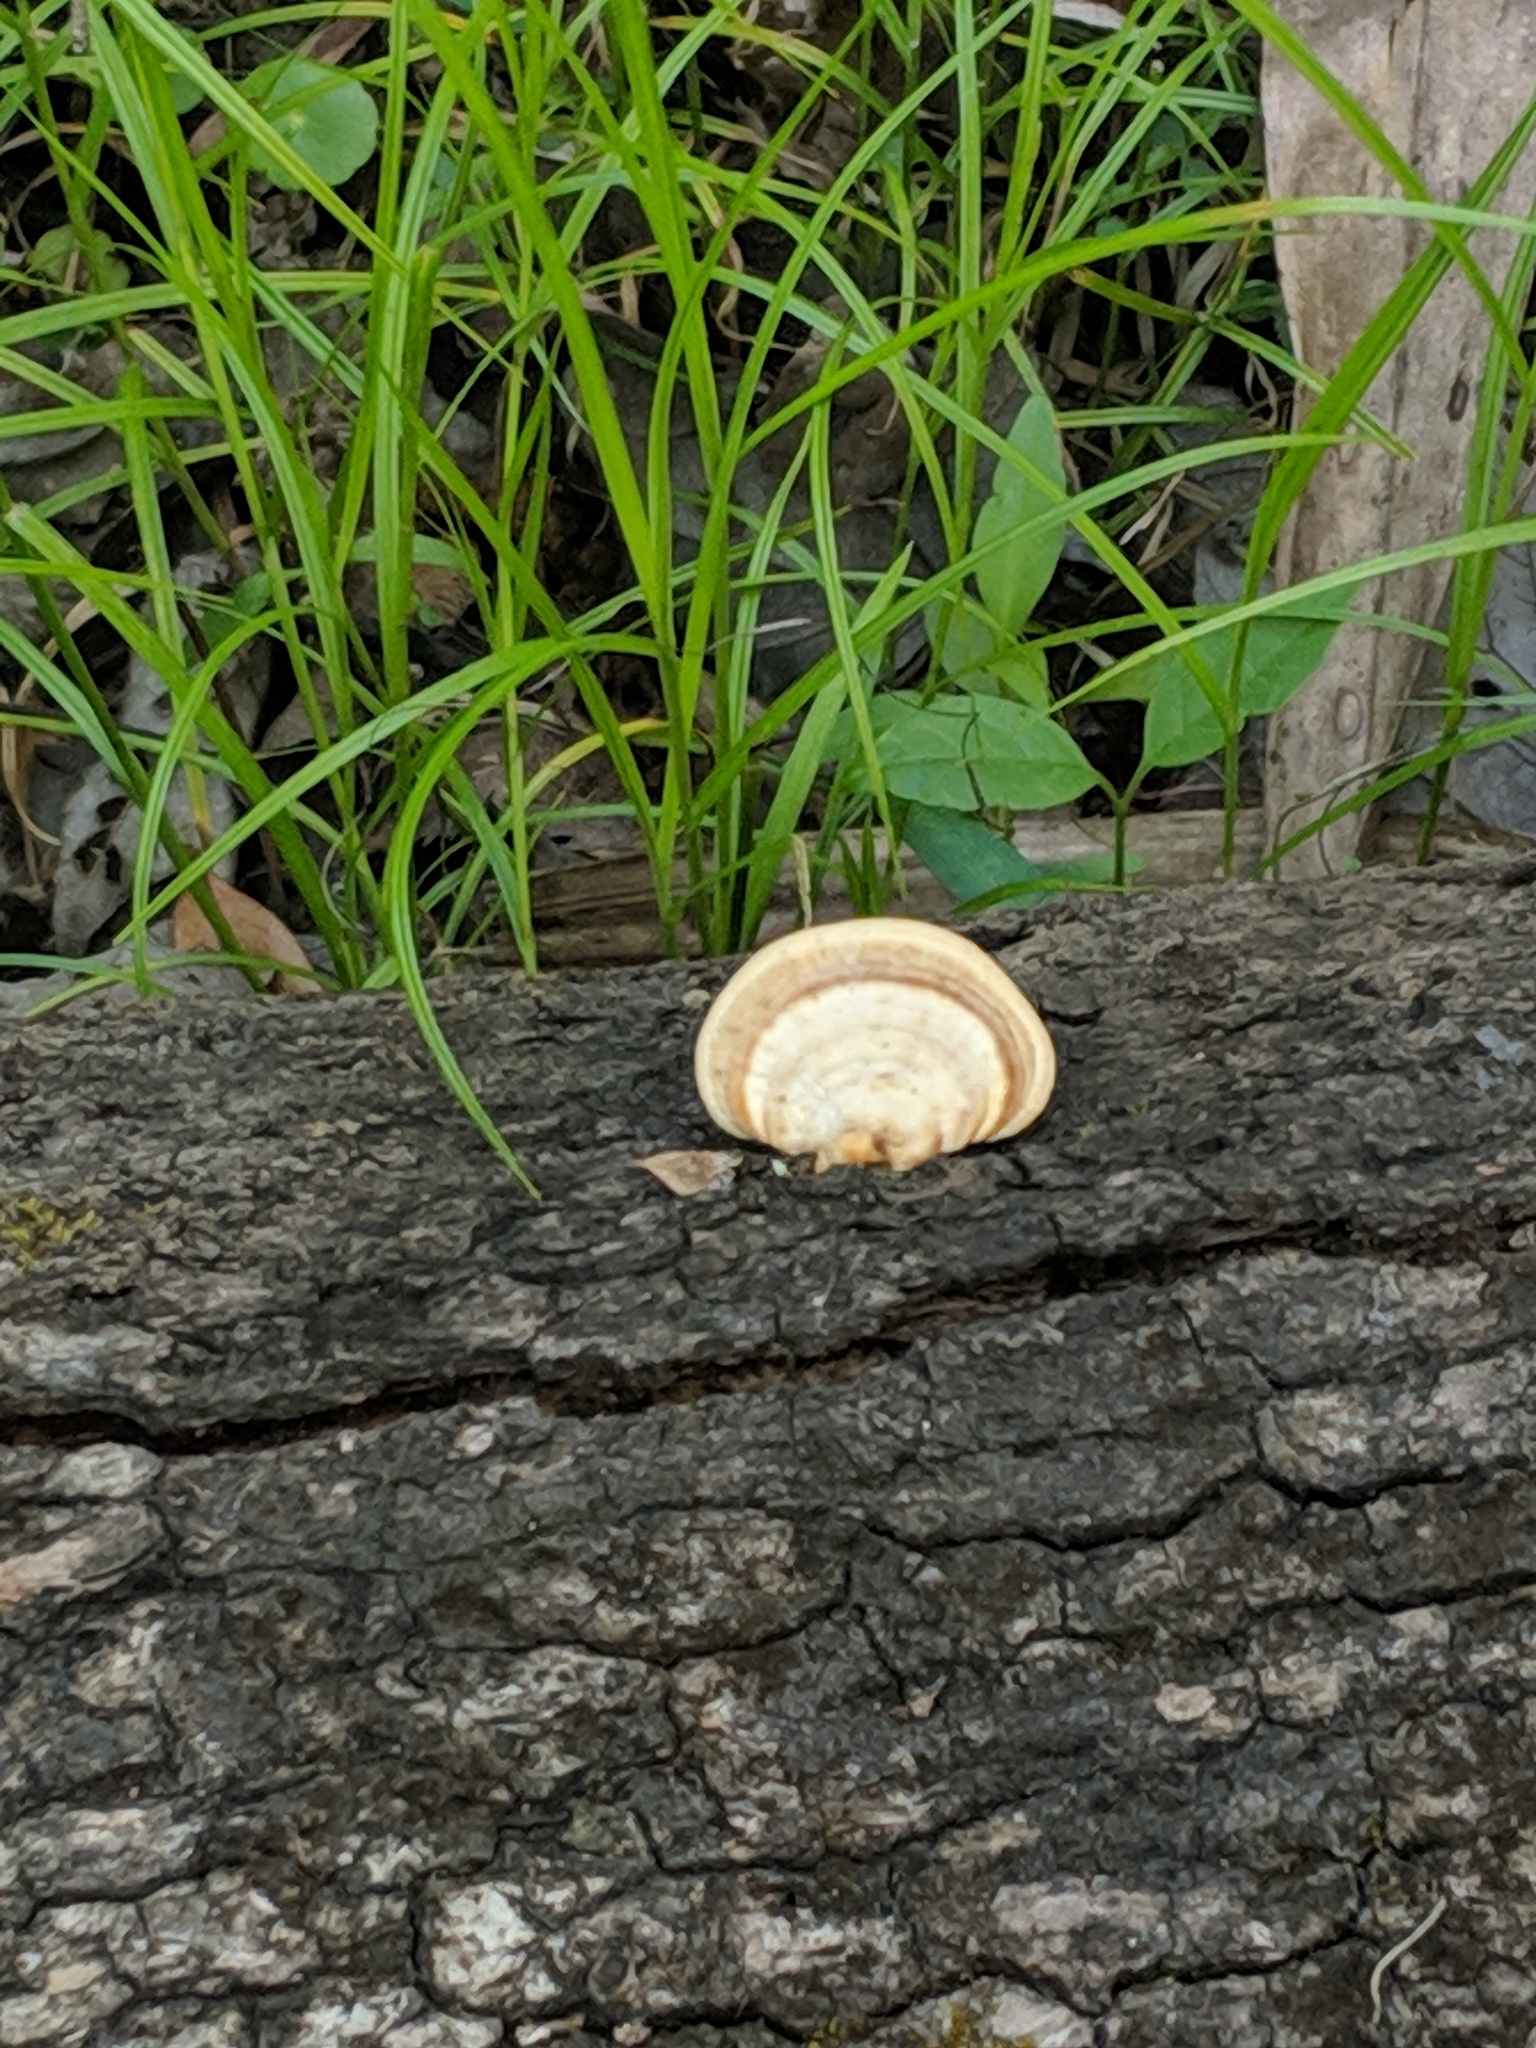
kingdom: Fungi
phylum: Basidiomycota
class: Agaricomycetes
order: Polyporales
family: Polyporaceae
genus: Trametes
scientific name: Trametes cubensis
